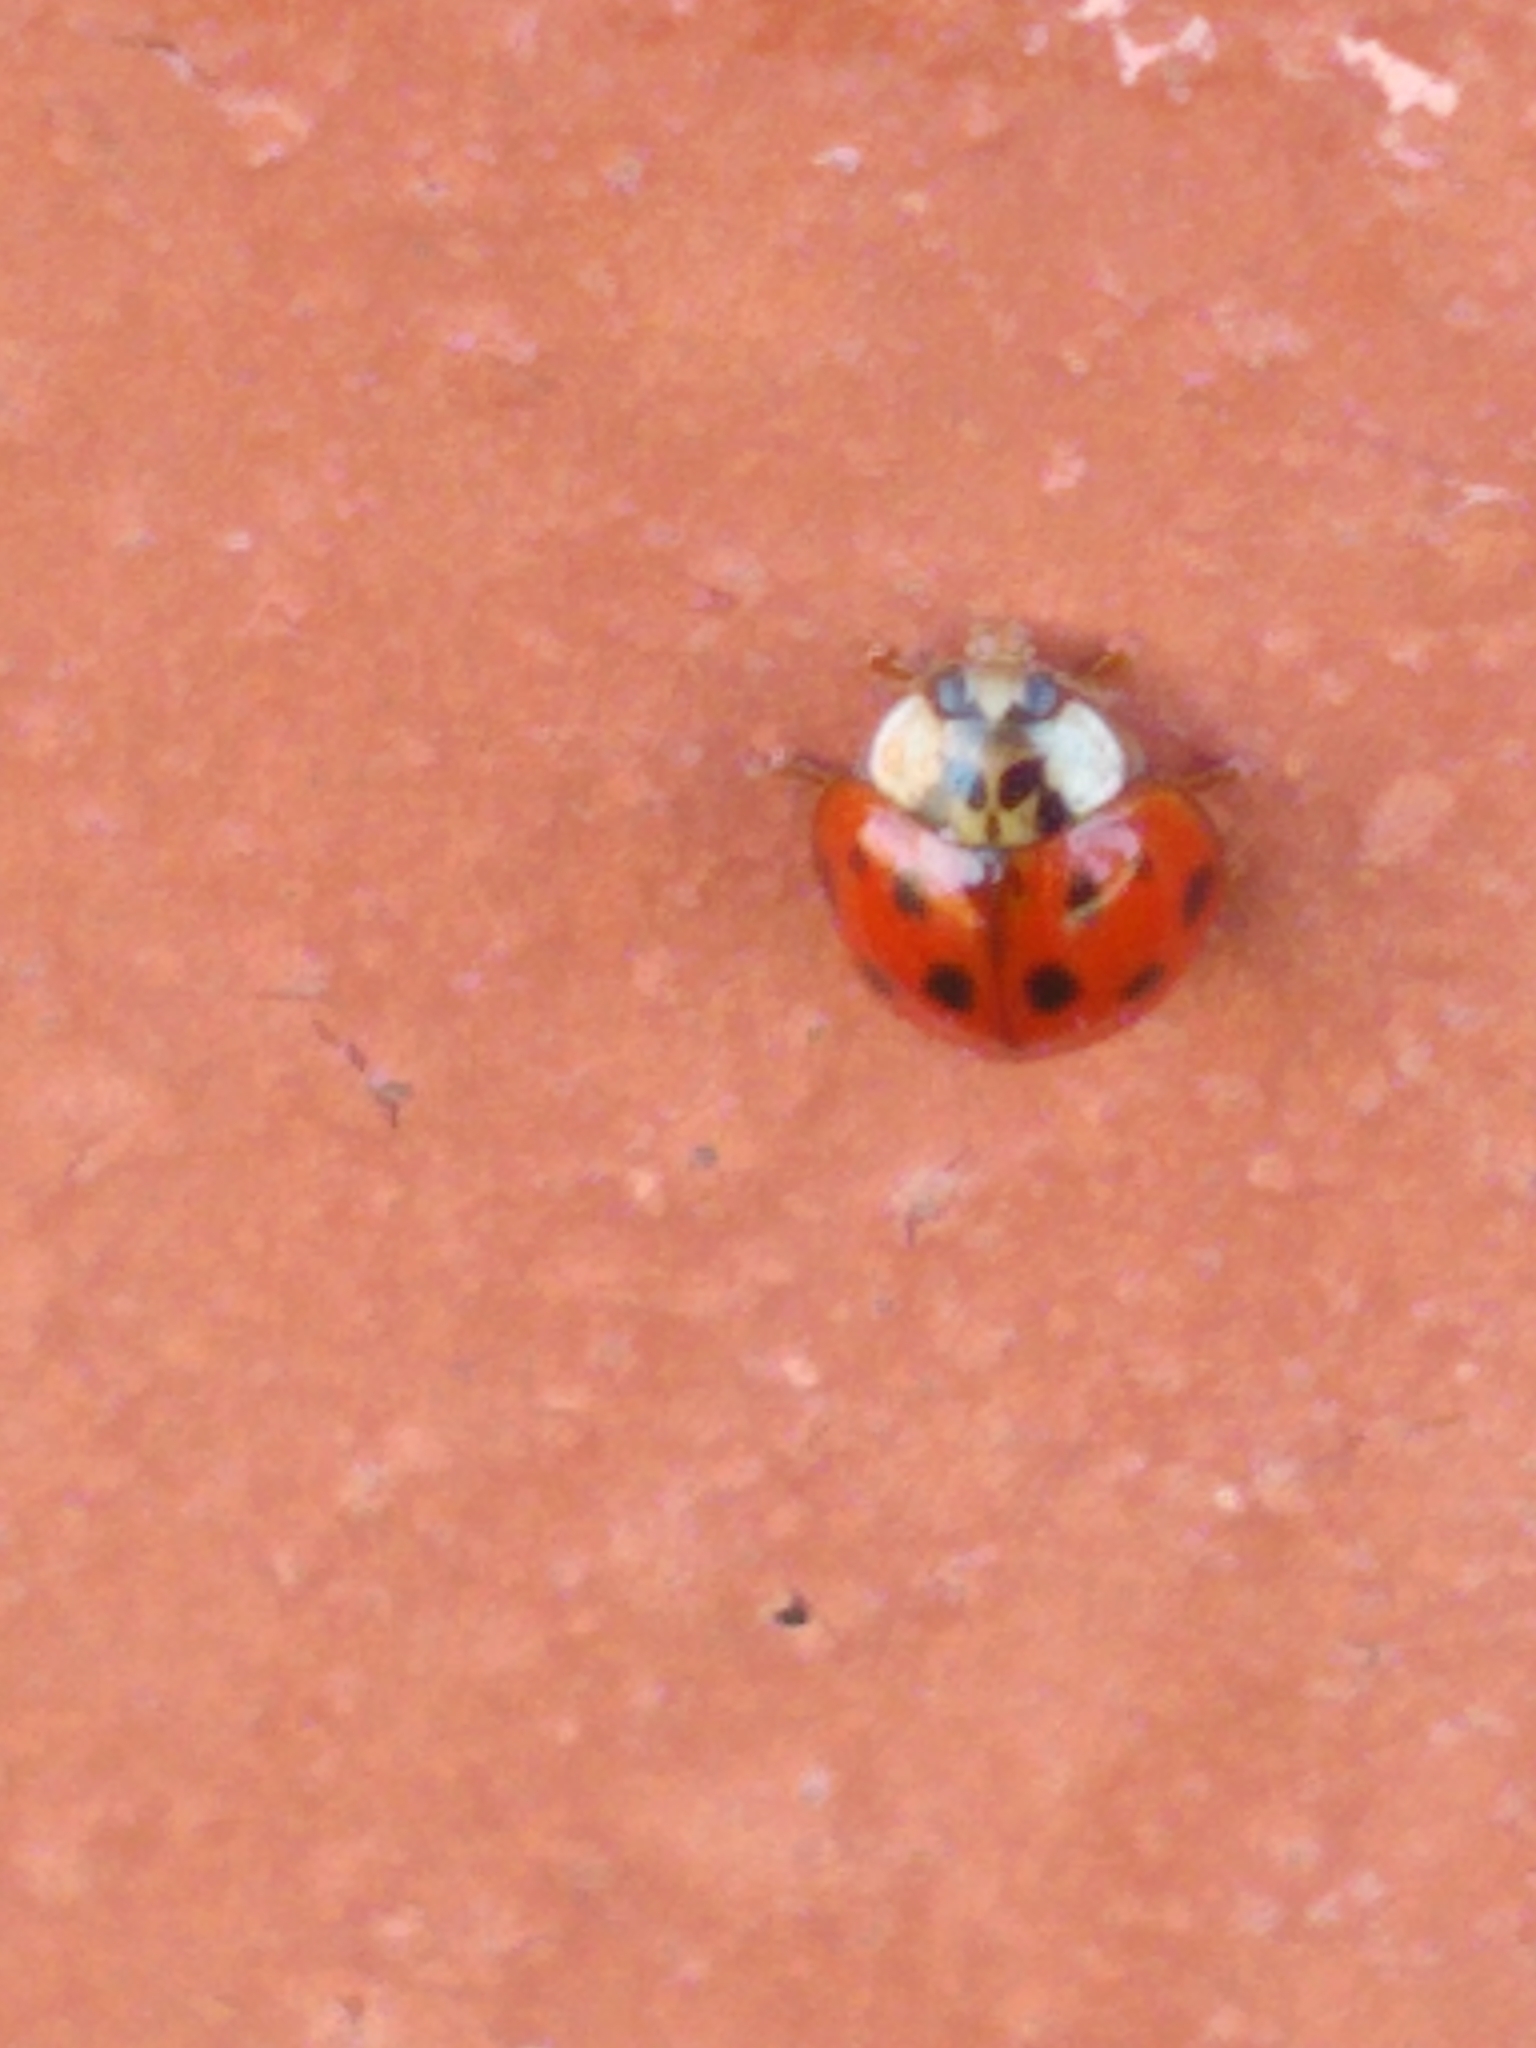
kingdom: Animalia
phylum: Arthropoda
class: Insecta
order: Coleoptera
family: Coccinellidae
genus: Harmonia
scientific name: Harmonia axyridis
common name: Harlequin ladybird
